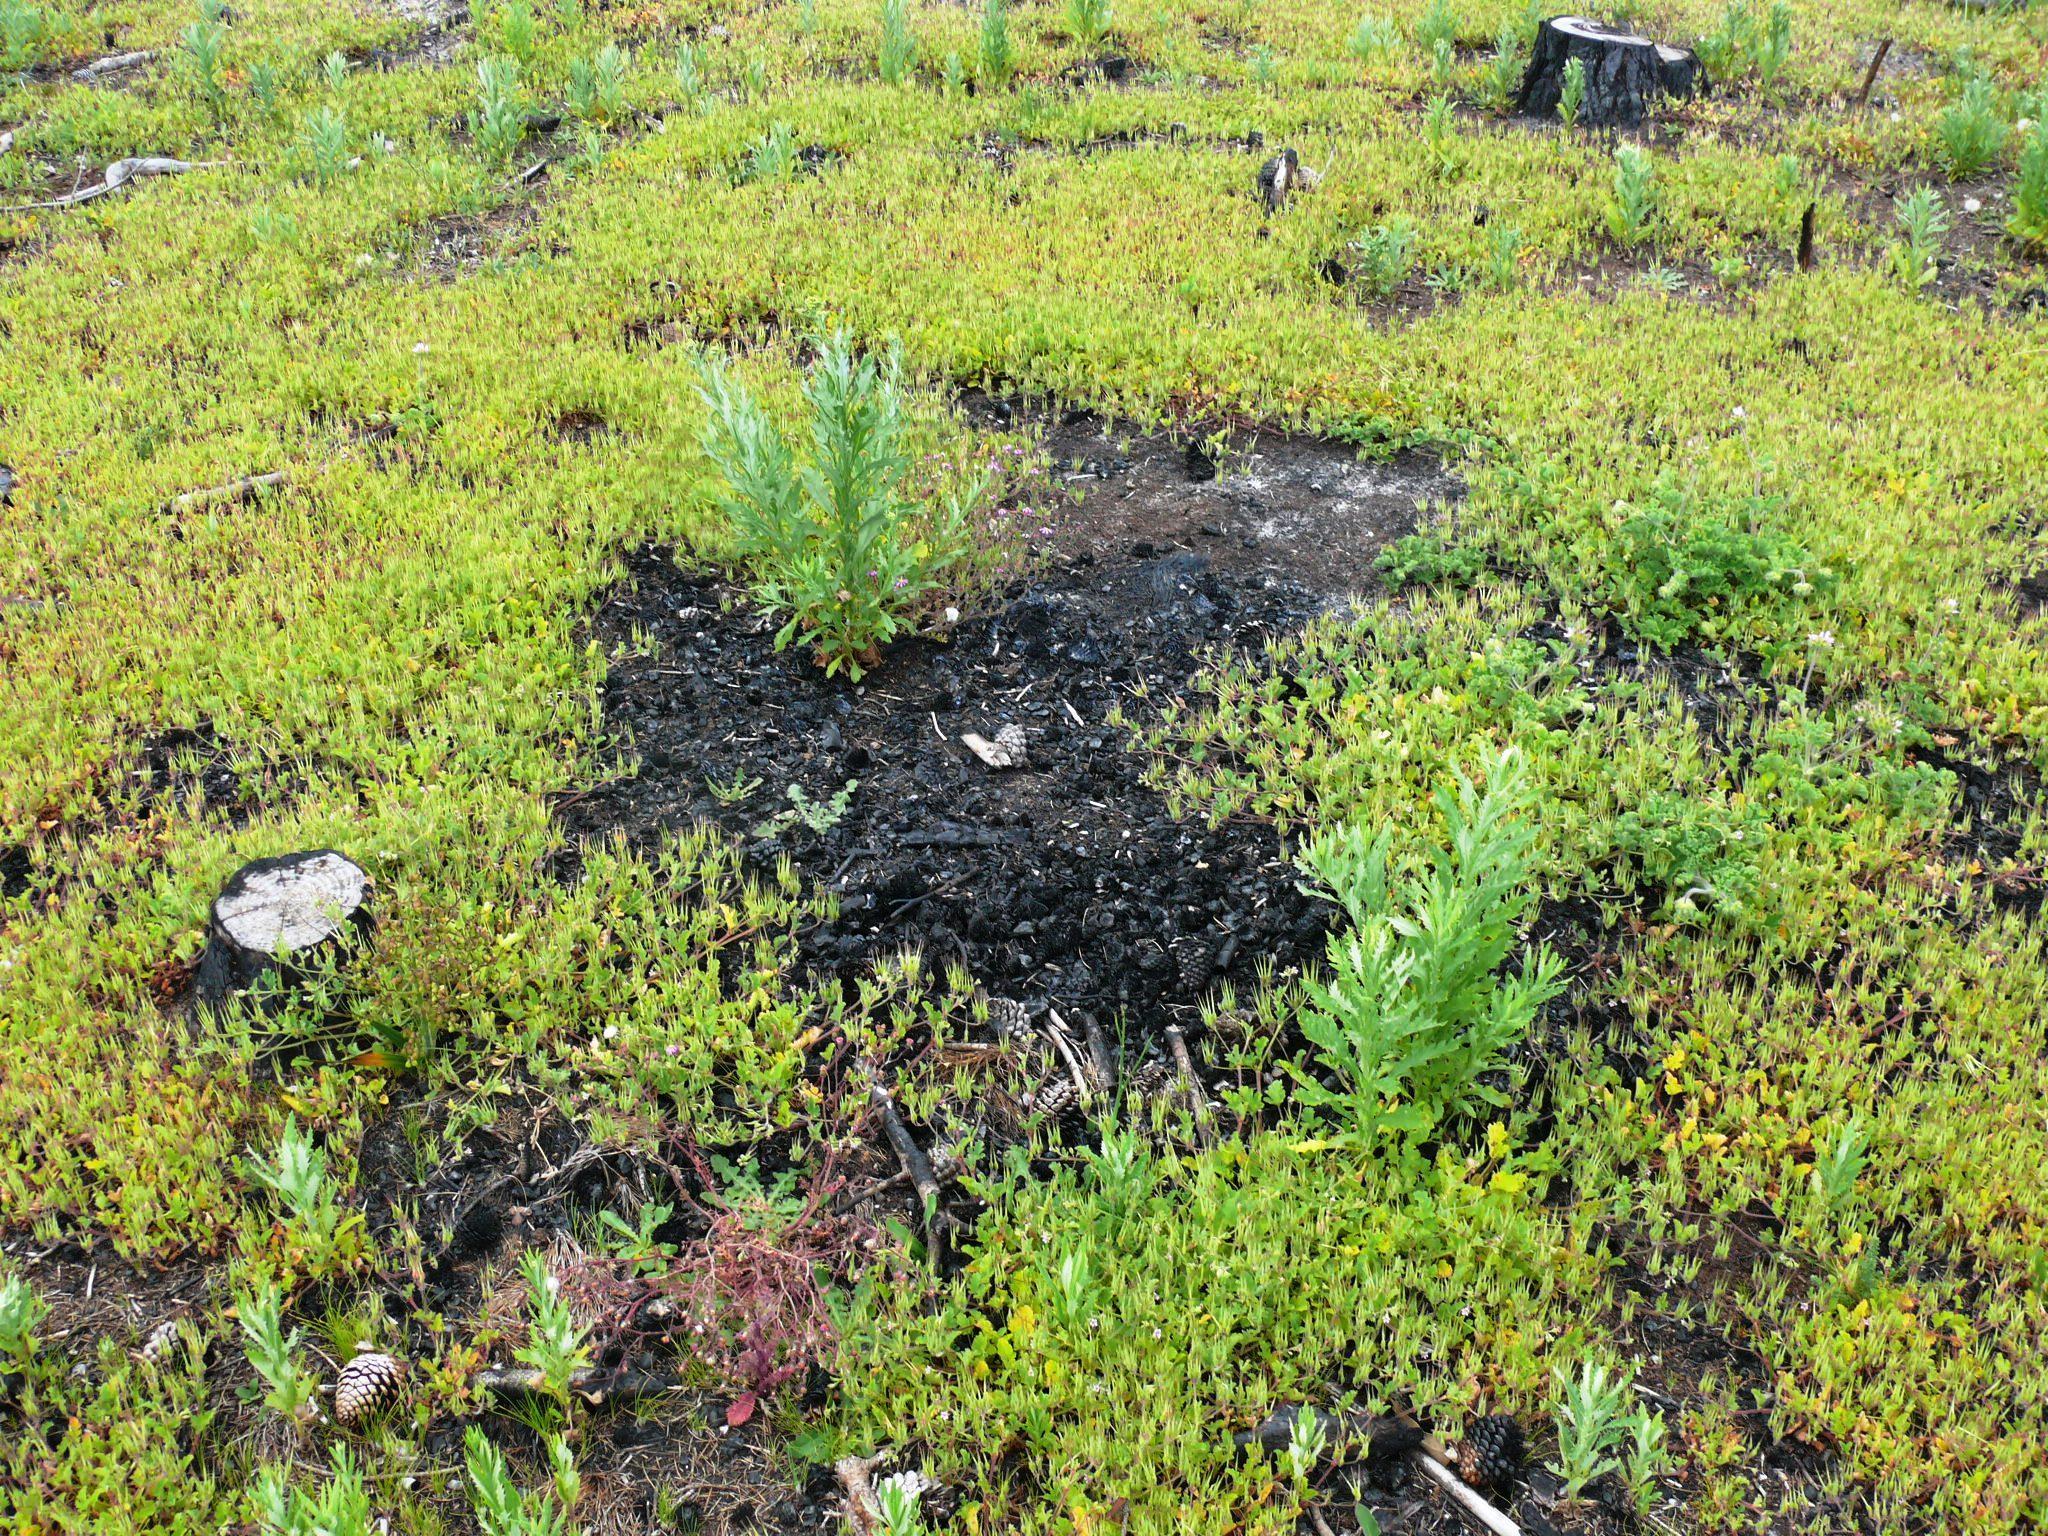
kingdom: Plantae
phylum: Tracheophyta
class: Magnoliopsida
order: Geraniales
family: Geraniaceae
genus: Pelargonium
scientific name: Pelargonium althaeoides
